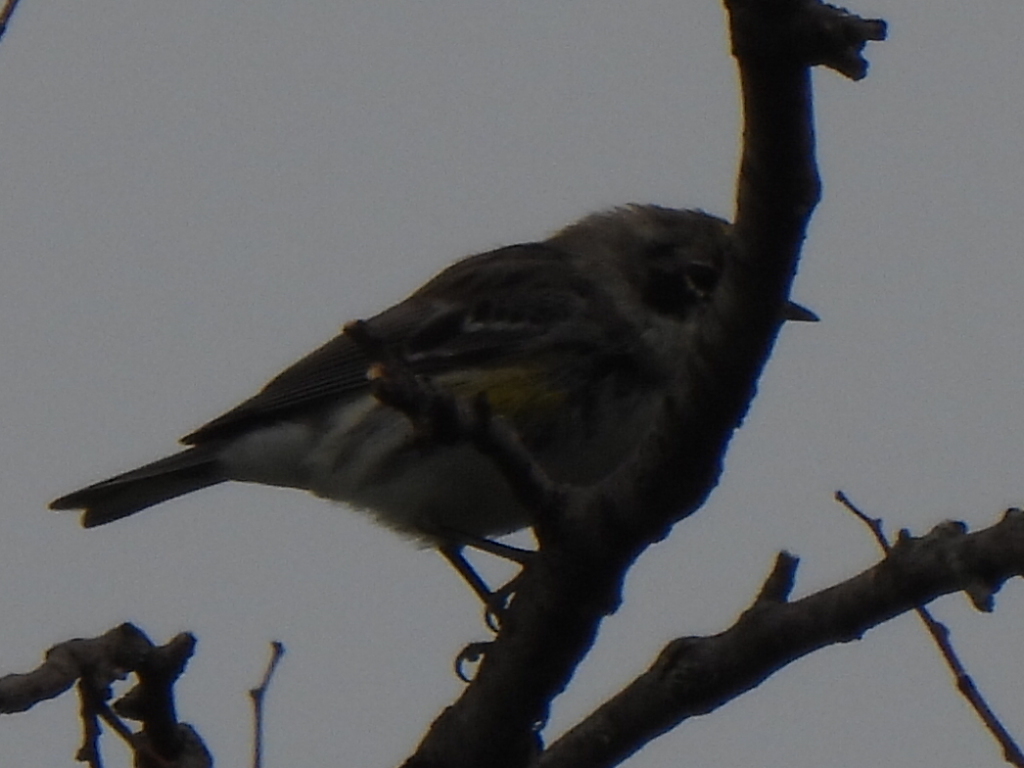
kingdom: Animalia
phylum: Chordata
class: Aves
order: Passeriformes
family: Parulidae
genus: Setophaga
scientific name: Setophaga coronata
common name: Myrtle warbler
